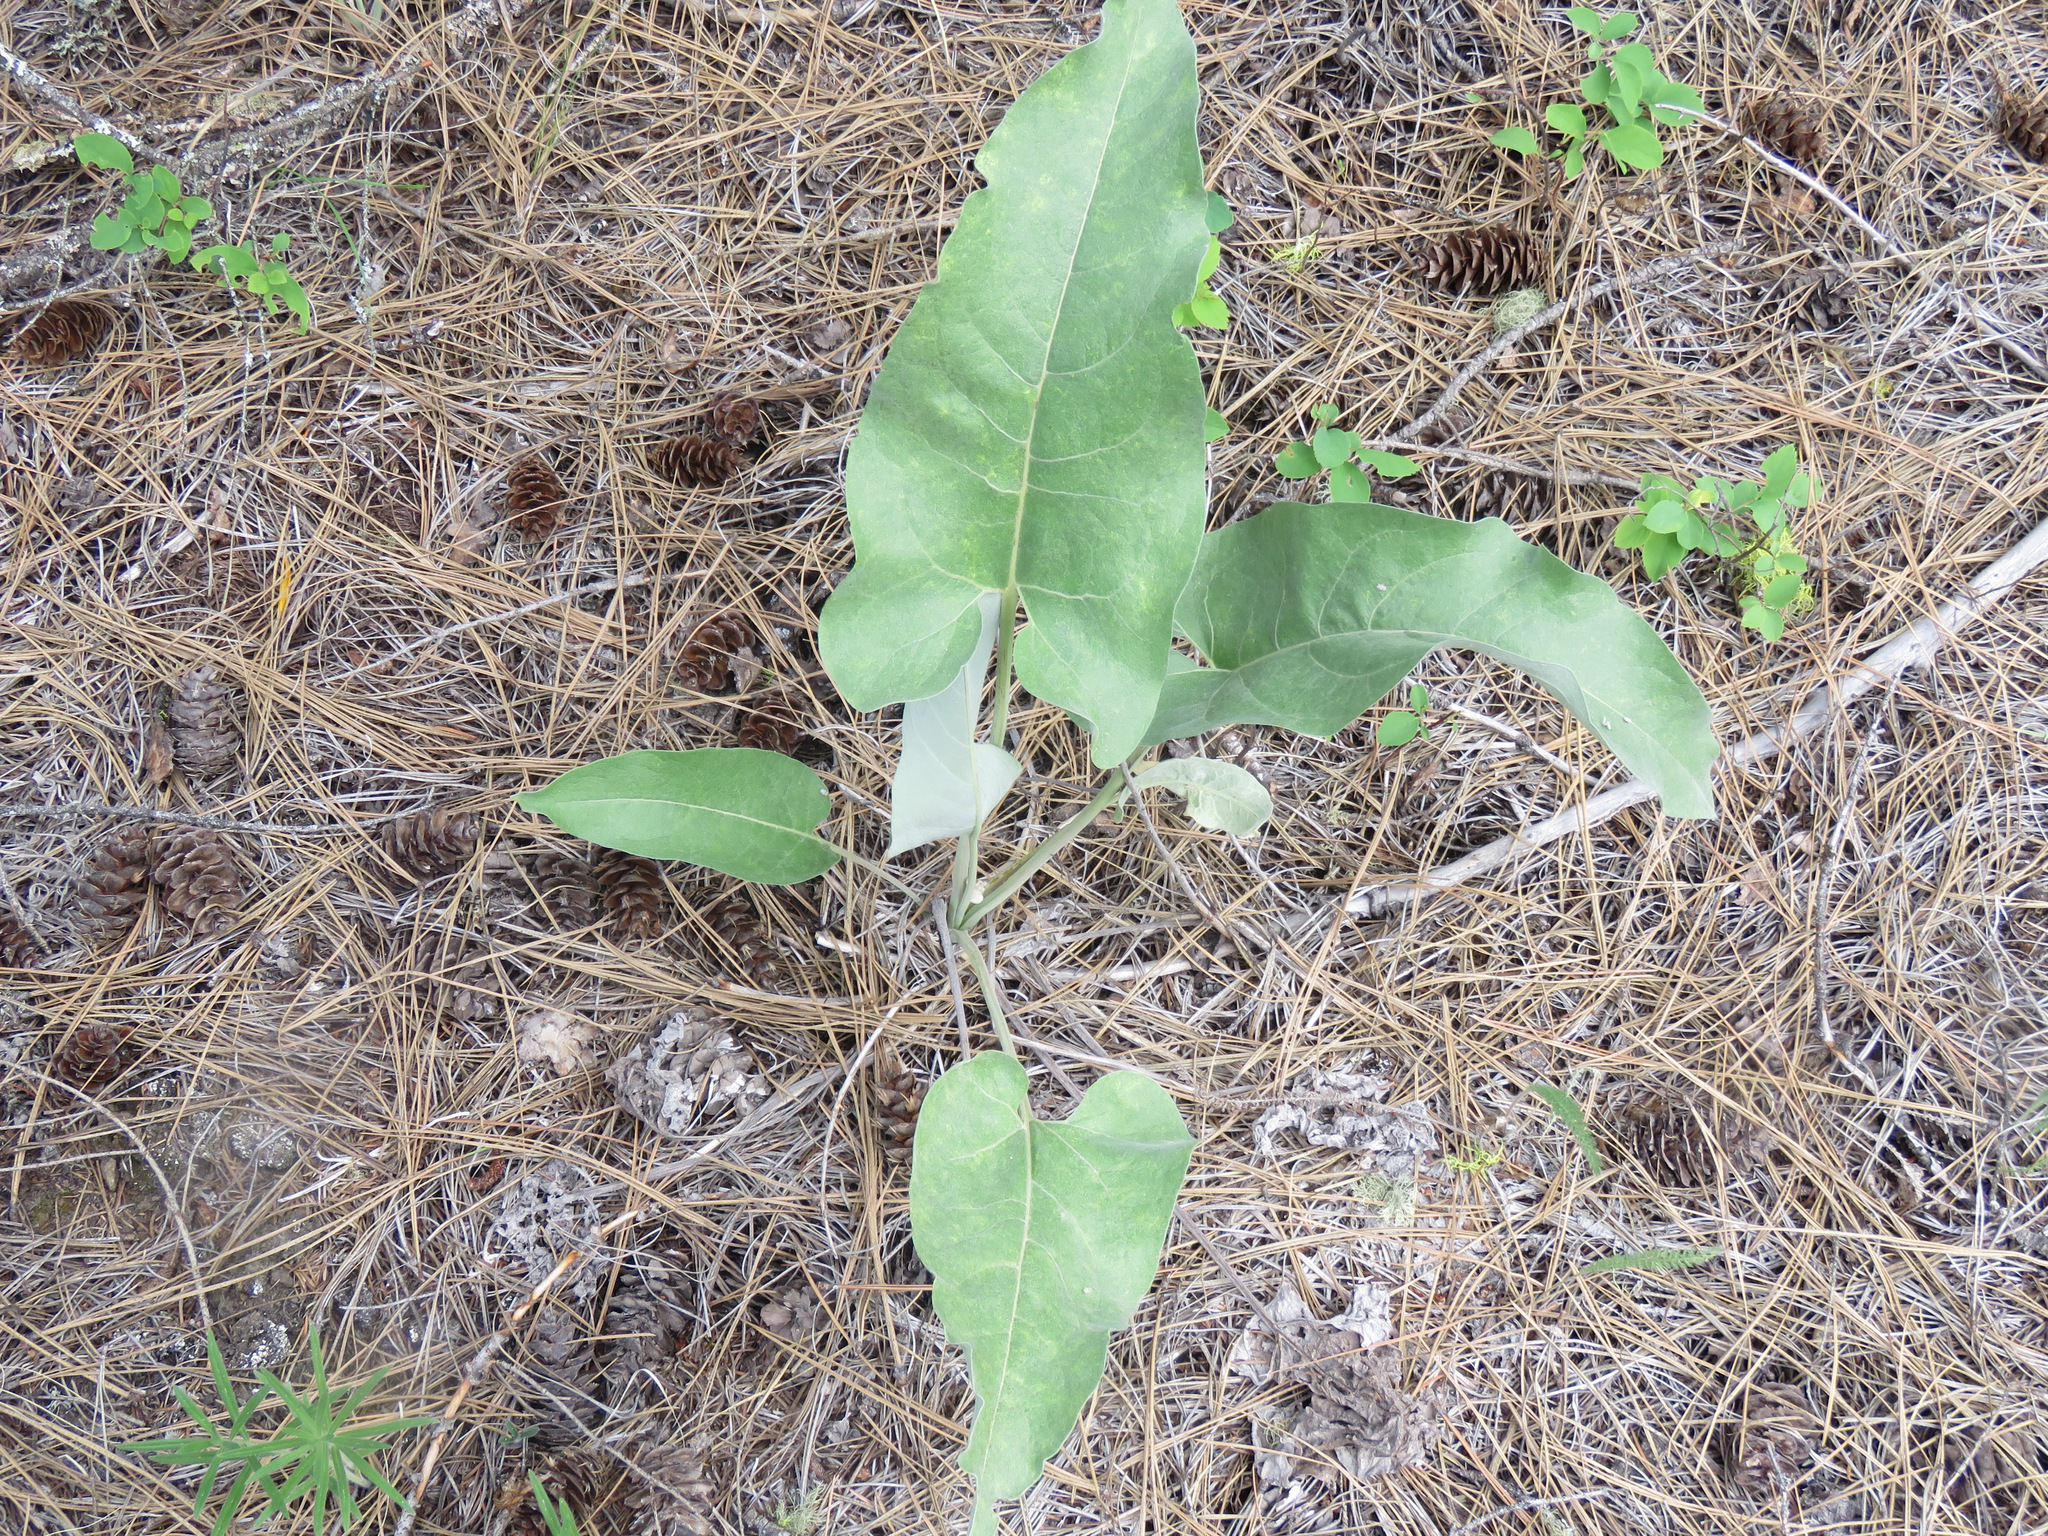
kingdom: Plantae
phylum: Tracheophyta
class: Magnoliopsida
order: Asterales
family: Asteraceae
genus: Wyethia
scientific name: Wyethia sagittata
